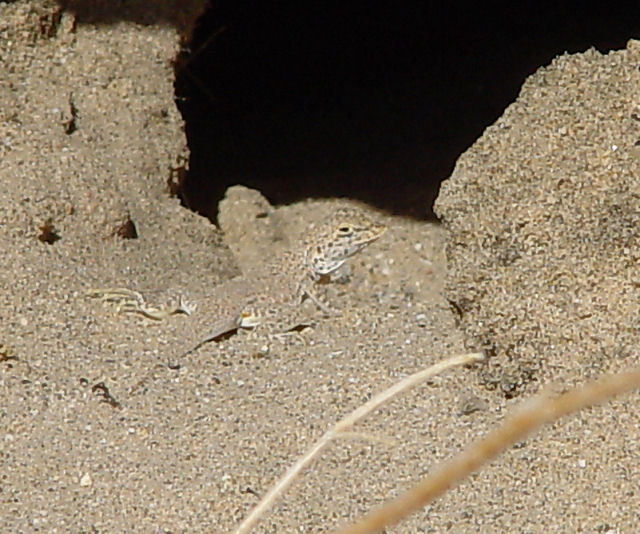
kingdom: Animalia
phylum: Chordata
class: Squamata
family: Phrynosomatidae
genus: Uma
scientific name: Uma scoparia
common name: Mojave fringe-toed lizard
